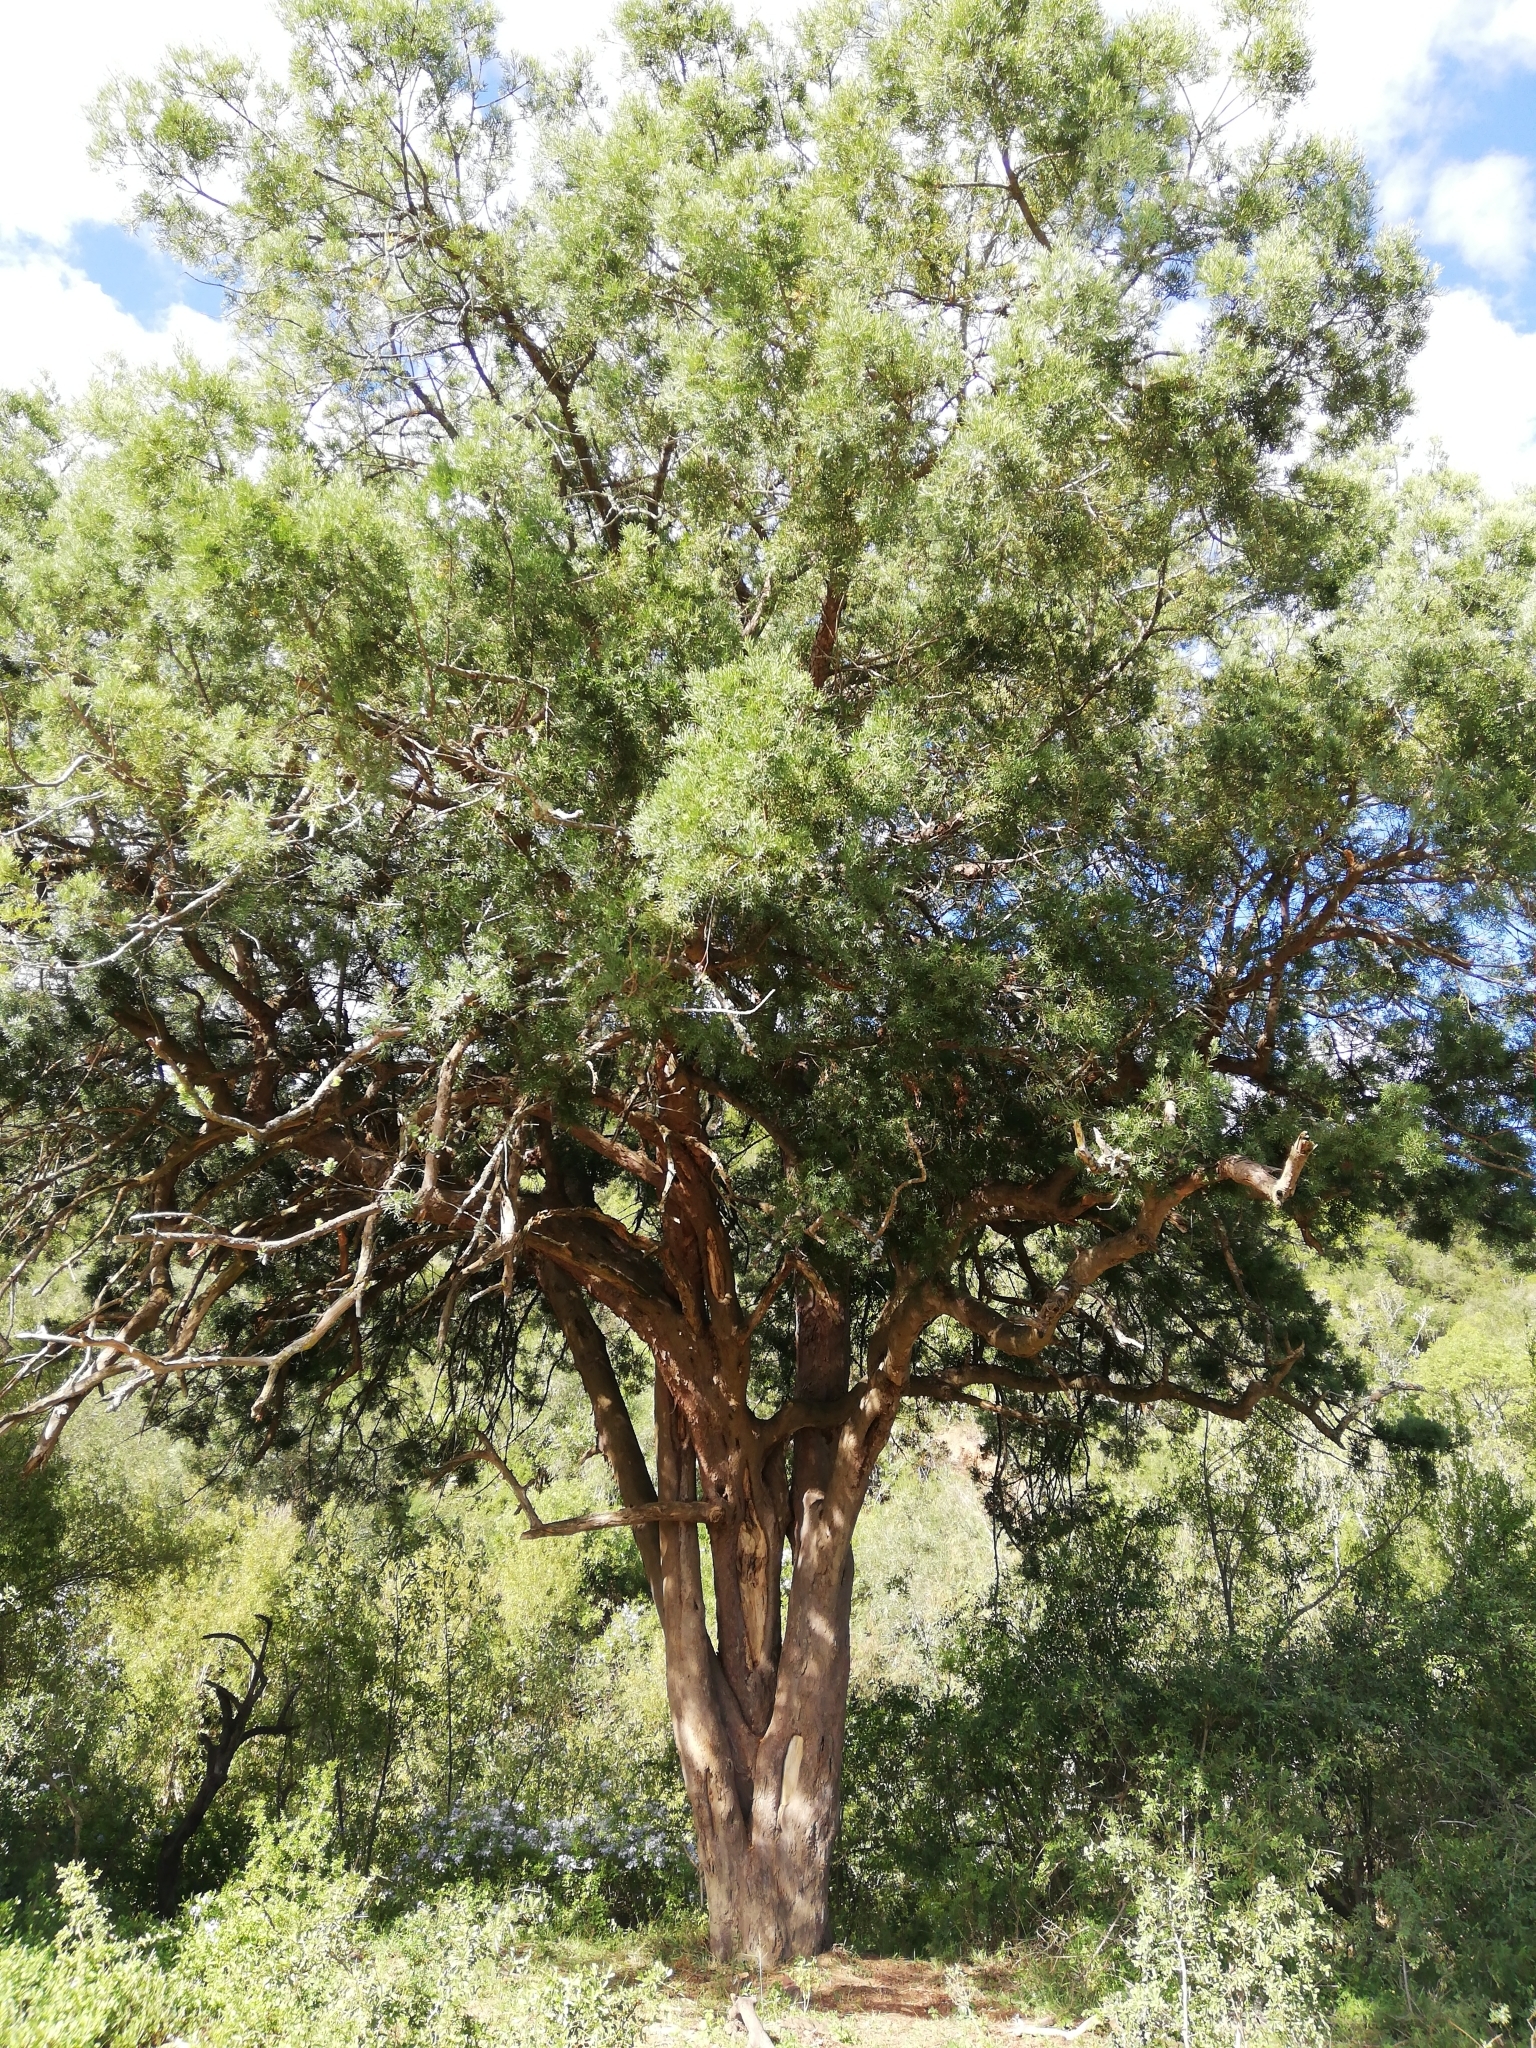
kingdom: Plantae
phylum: Tracheophyta
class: Pinopsida
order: Pinales
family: Podocarpaceae
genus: Afrocarpus
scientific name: Afrocarpus falcatus
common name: Bastard yellowwood
